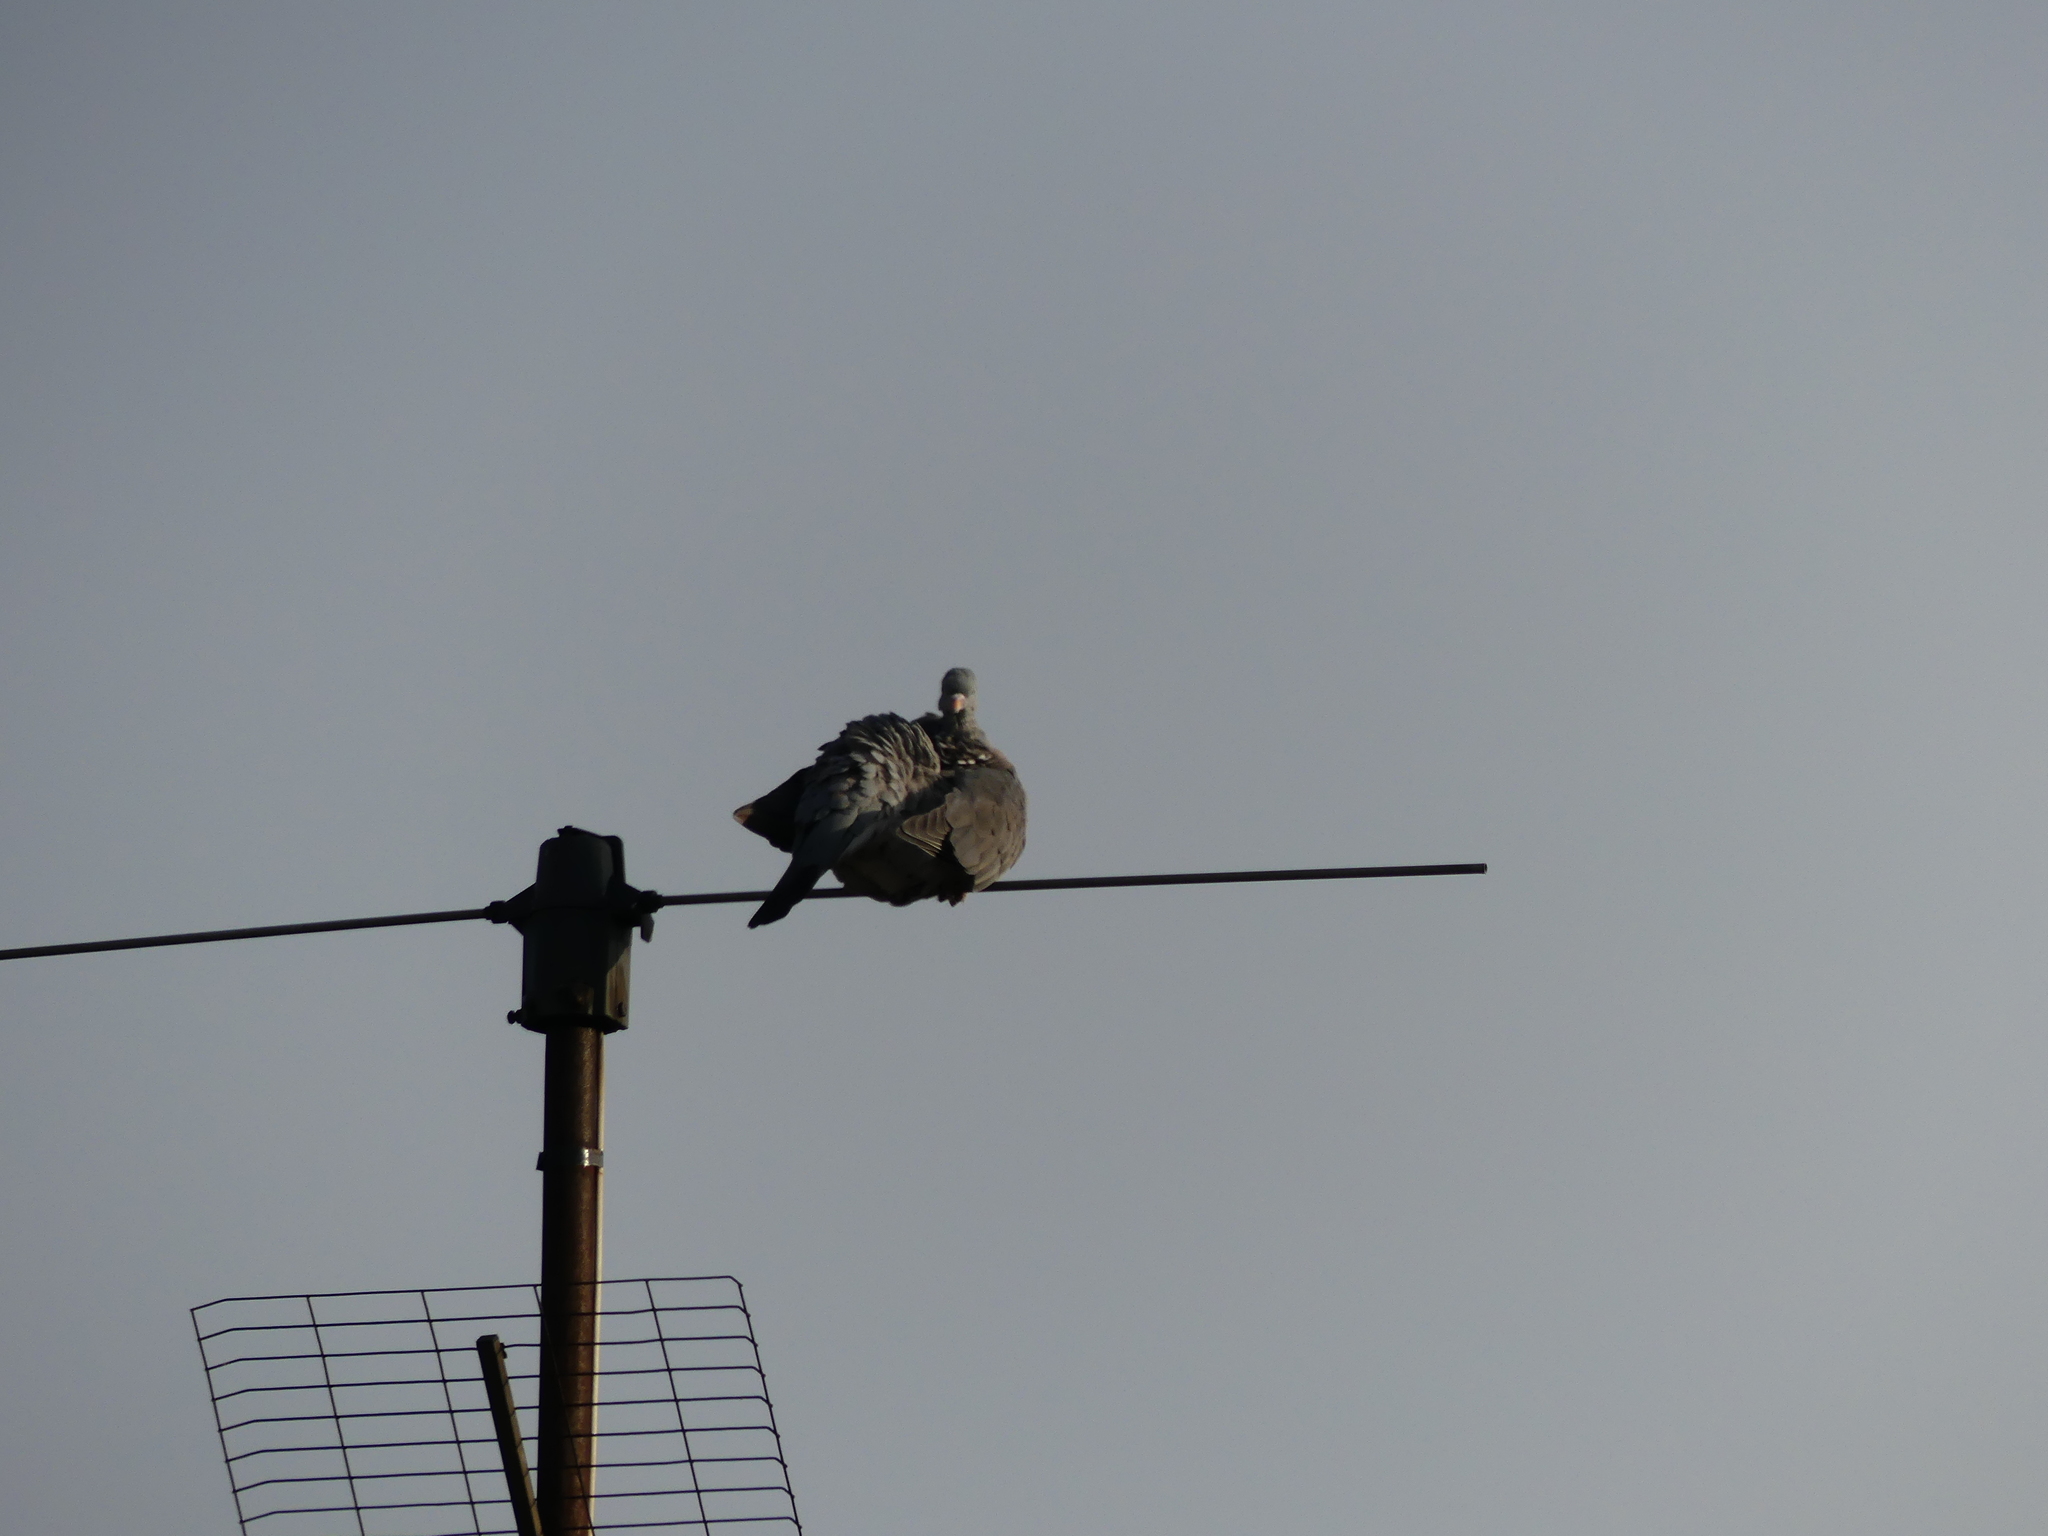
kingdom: Animalia
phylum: Chordata
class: Aves
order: Columbiformes
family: Columbidae
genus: Columba
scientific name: Columba palumbus
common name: Common wood pigeon
